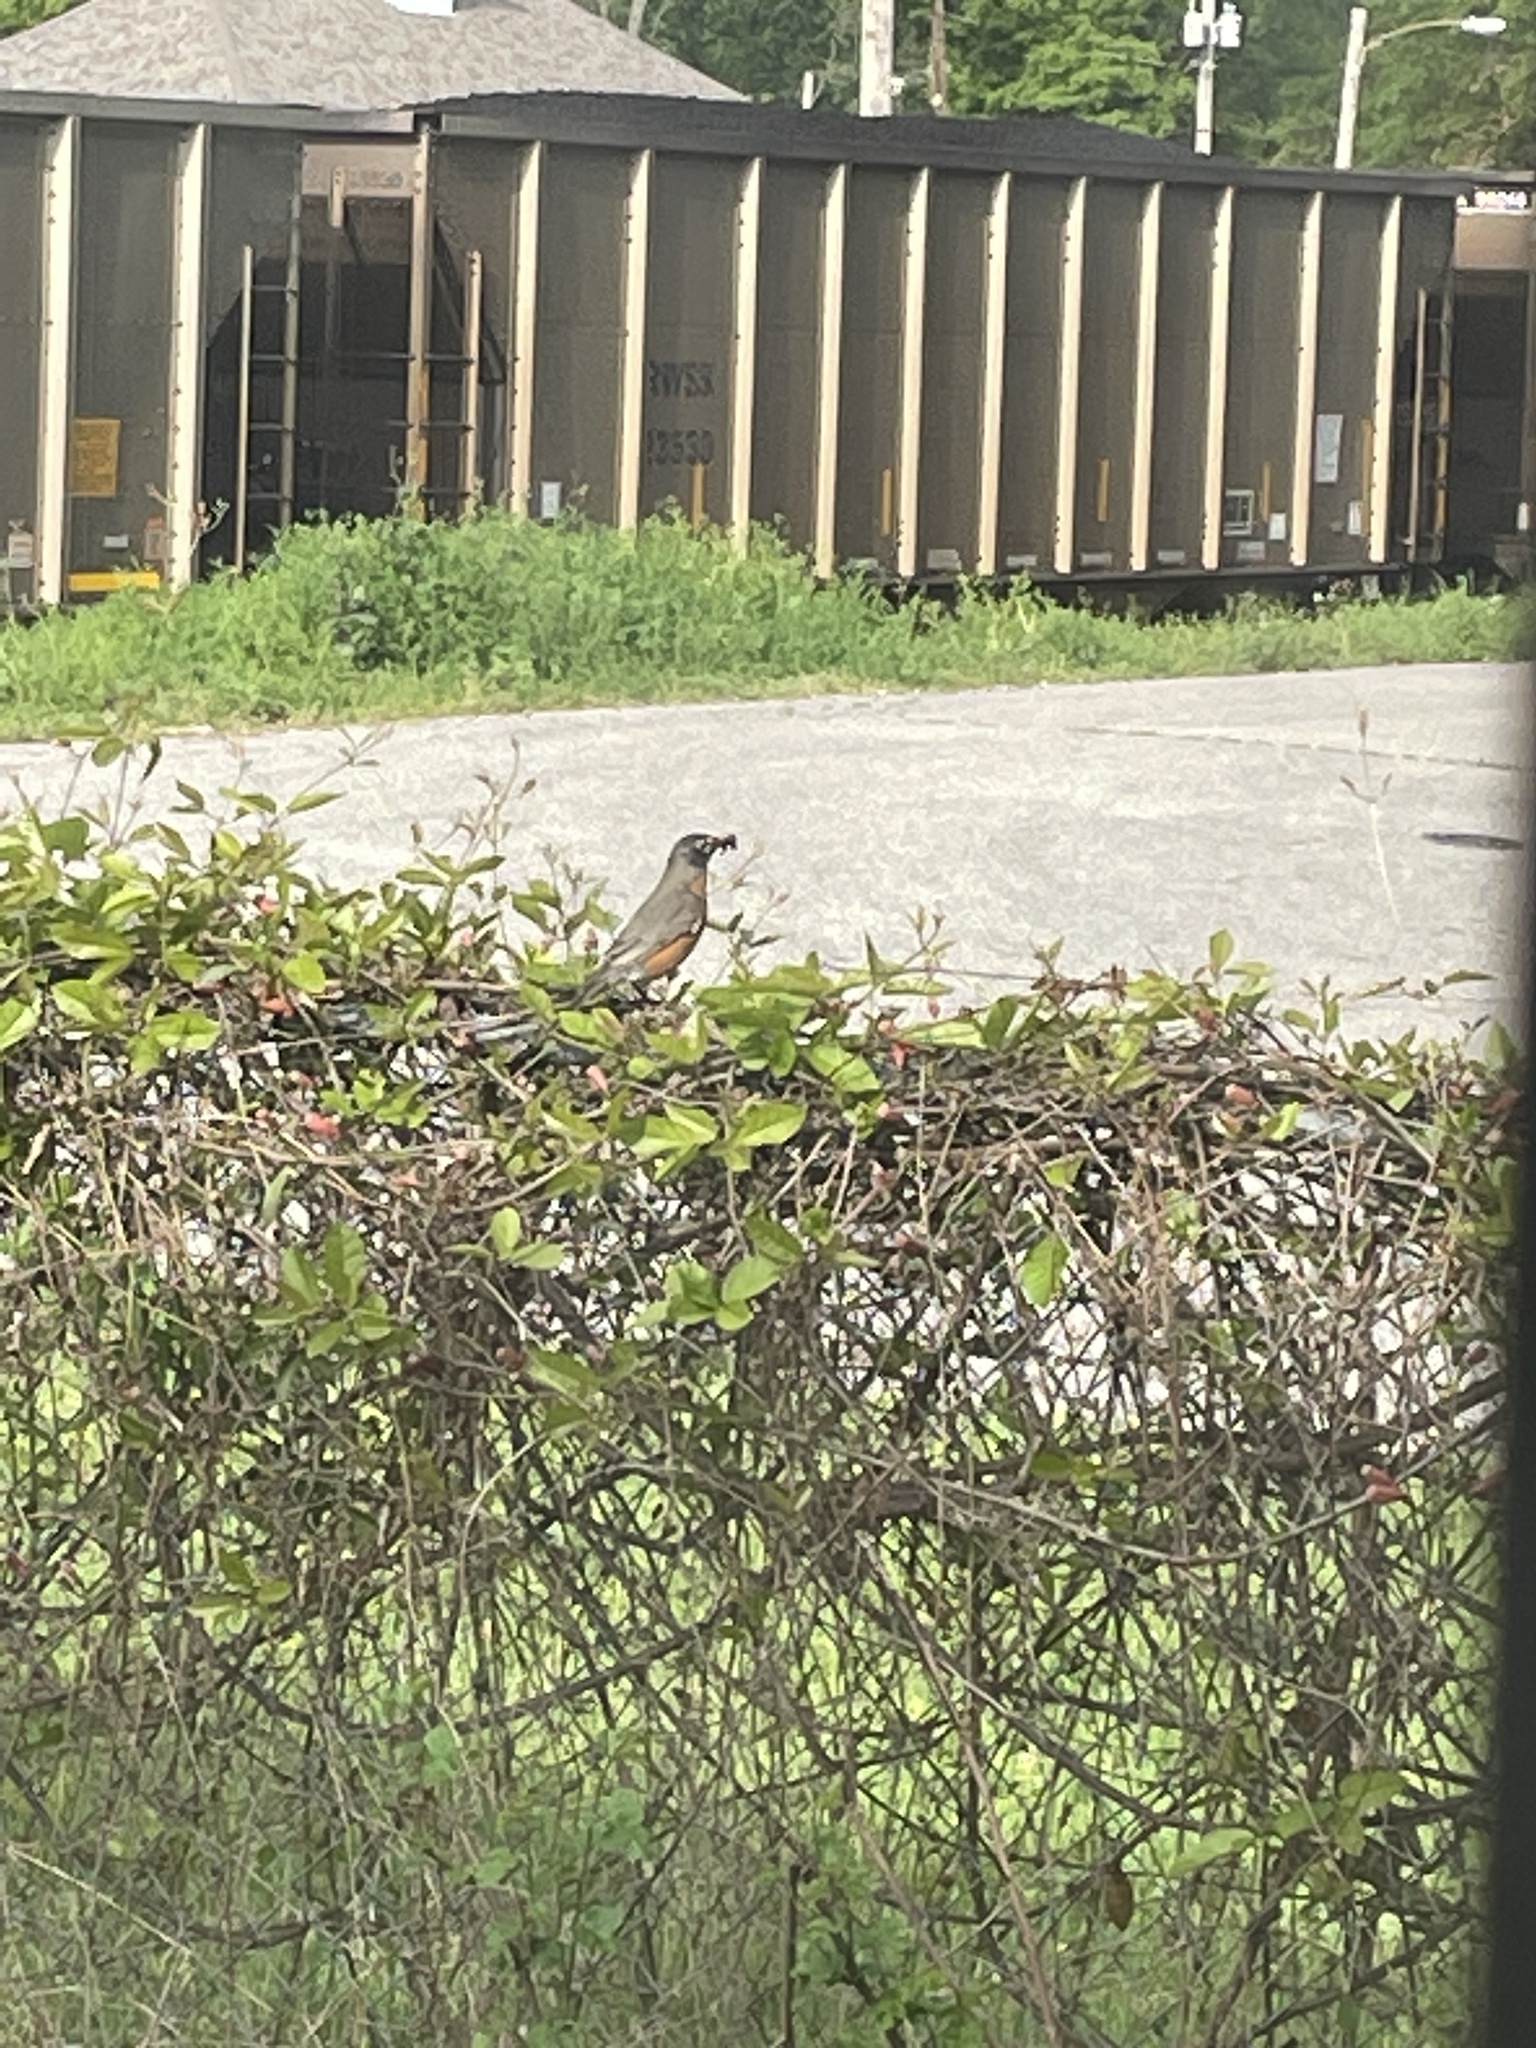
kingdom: Animalia
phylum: Chordata
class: Aves
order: Passeriformes
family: Turdidae
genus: Turdus
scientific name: Turdus migratorius
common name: American robin
